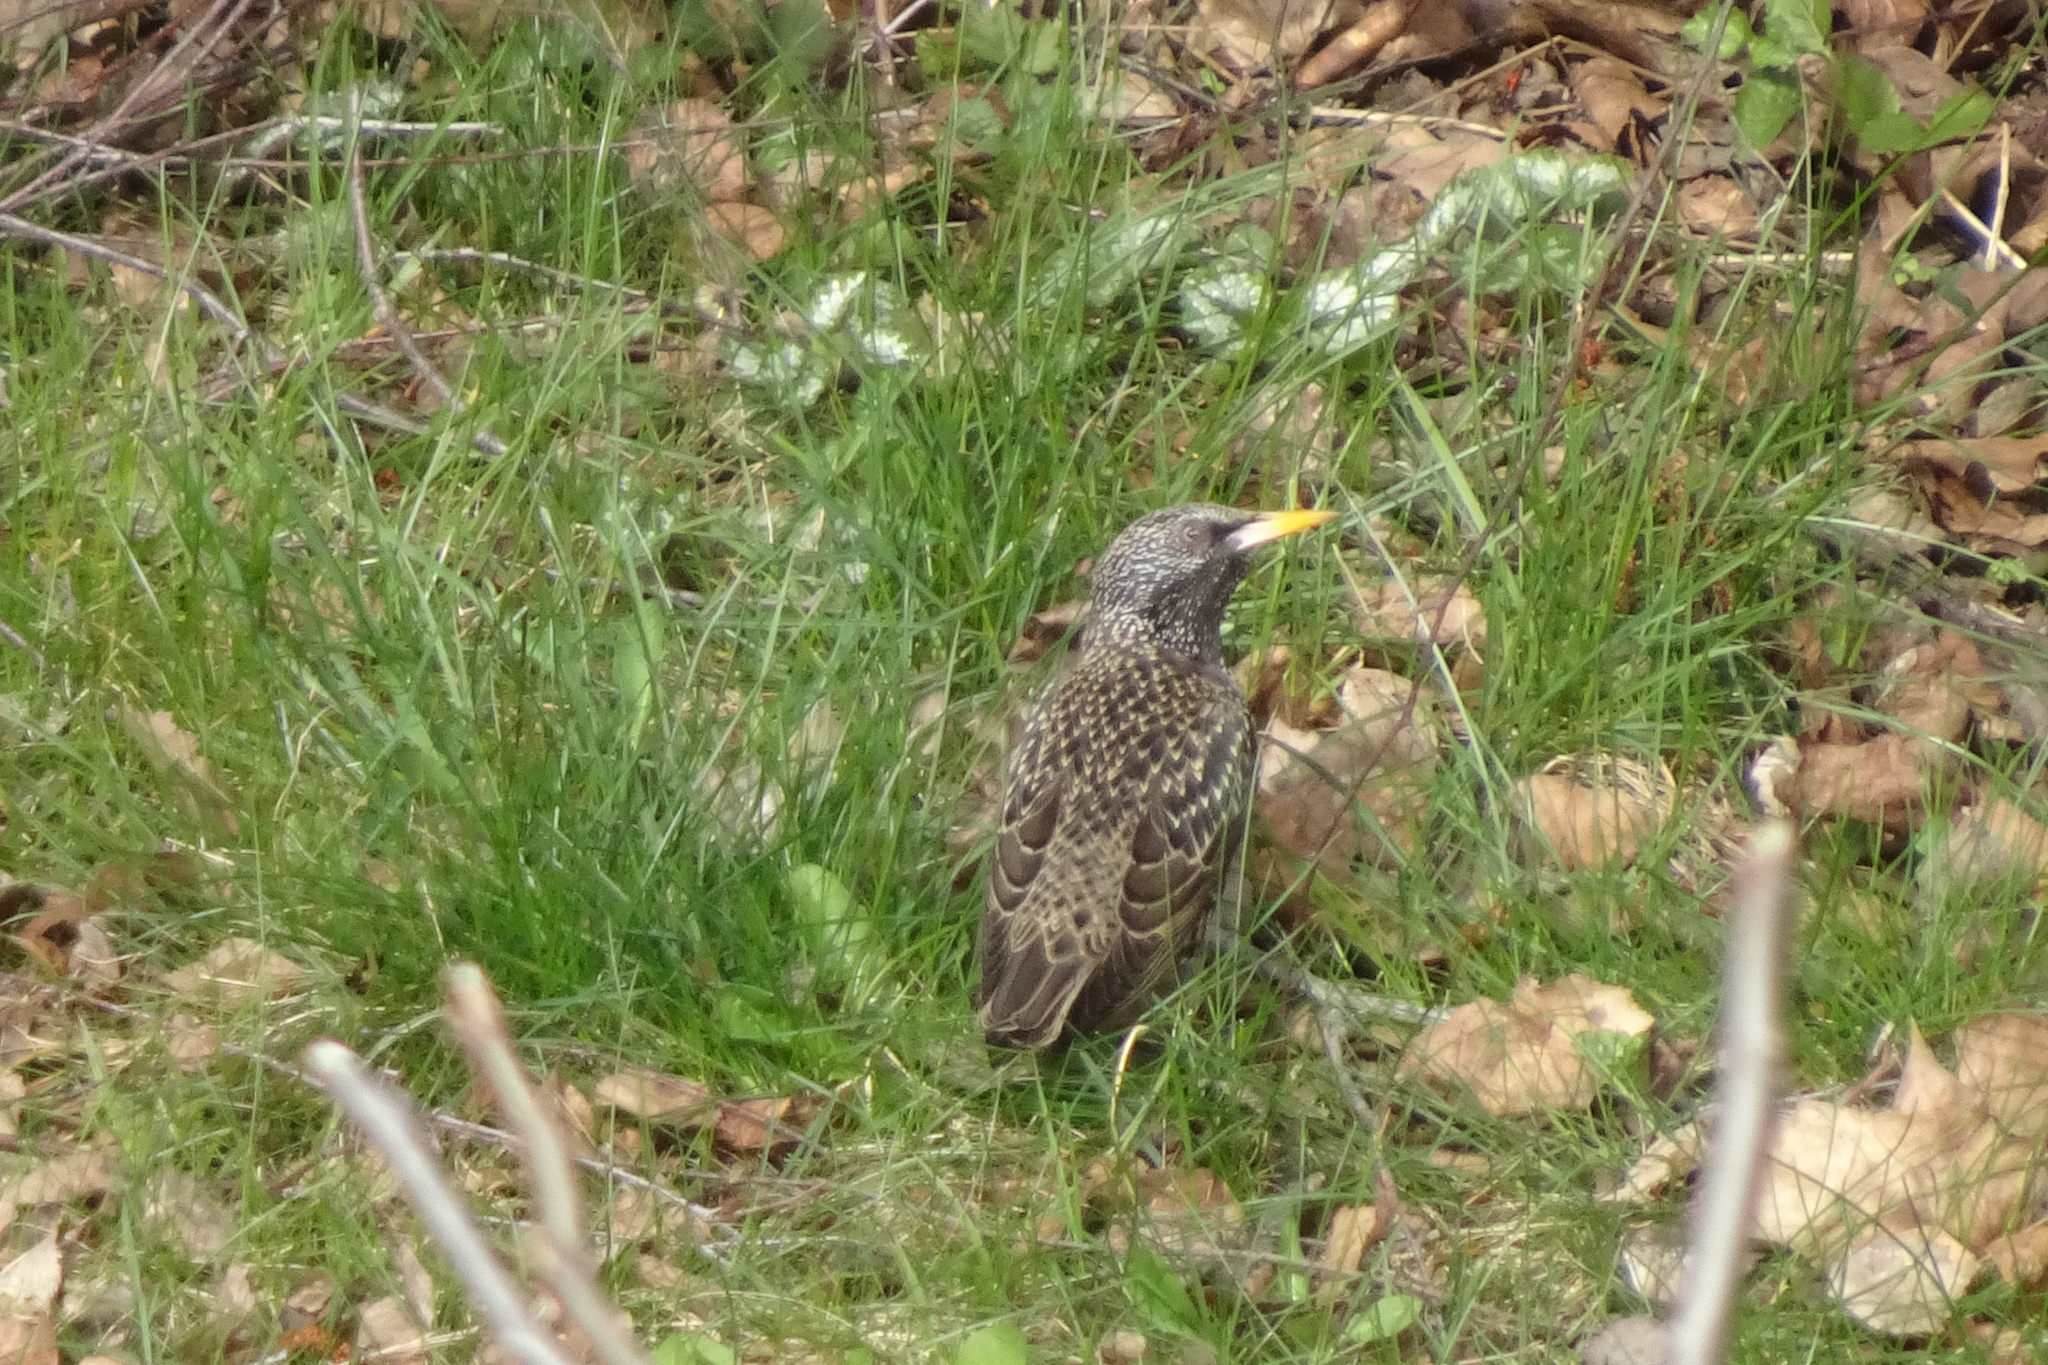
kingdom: Animalia
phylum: Chordata
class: Aves
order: Passeriformes
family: Sturnidae
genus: Sturnus
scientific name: Sturnus vulgaris
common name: Common starling
